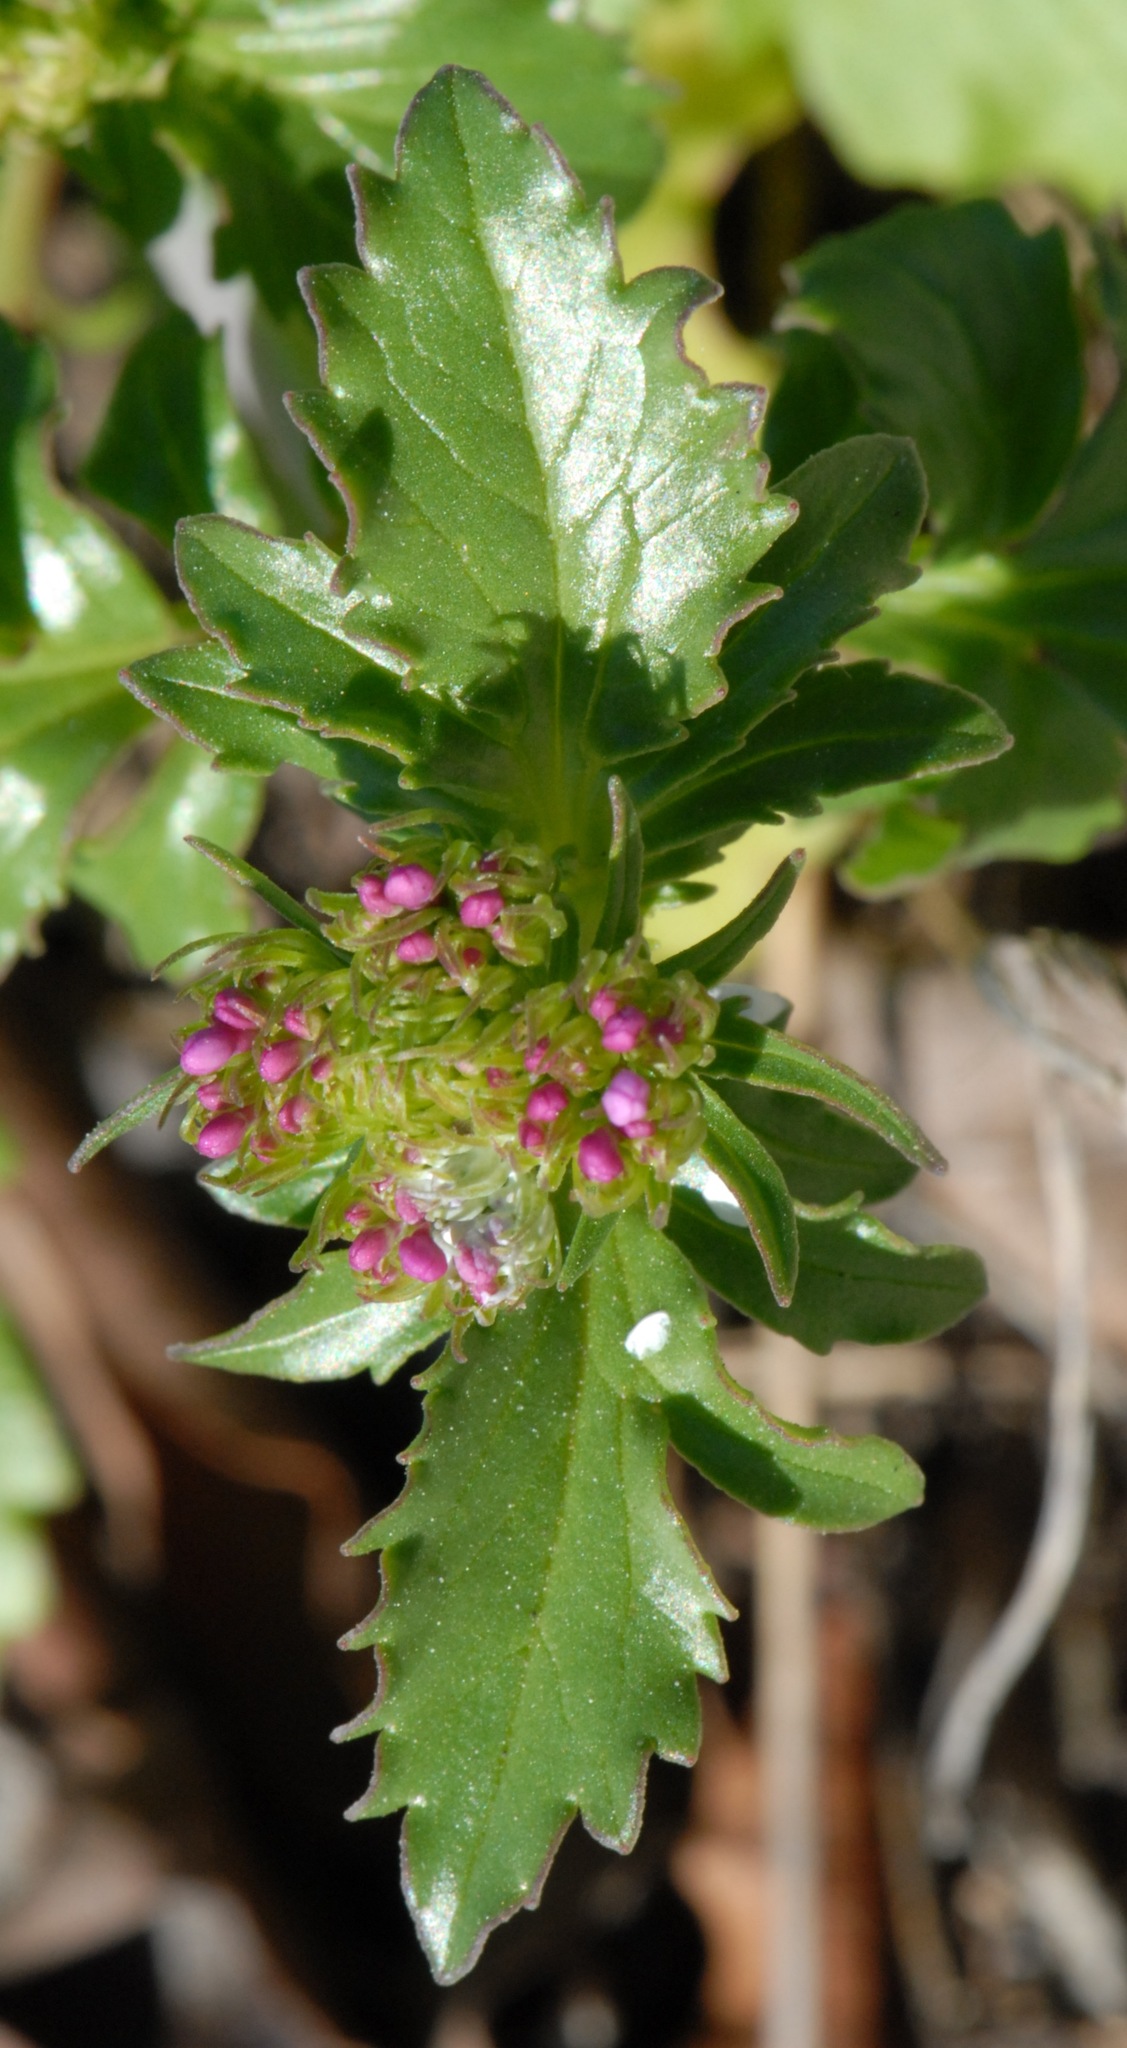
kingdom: Plantae
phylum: Tracheophyta
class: Magnoliopsida
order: Dipsacales
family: Caprifoliaceae
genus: Centranthus
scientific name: Centranthus calcitrapae
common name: Annual valerian
